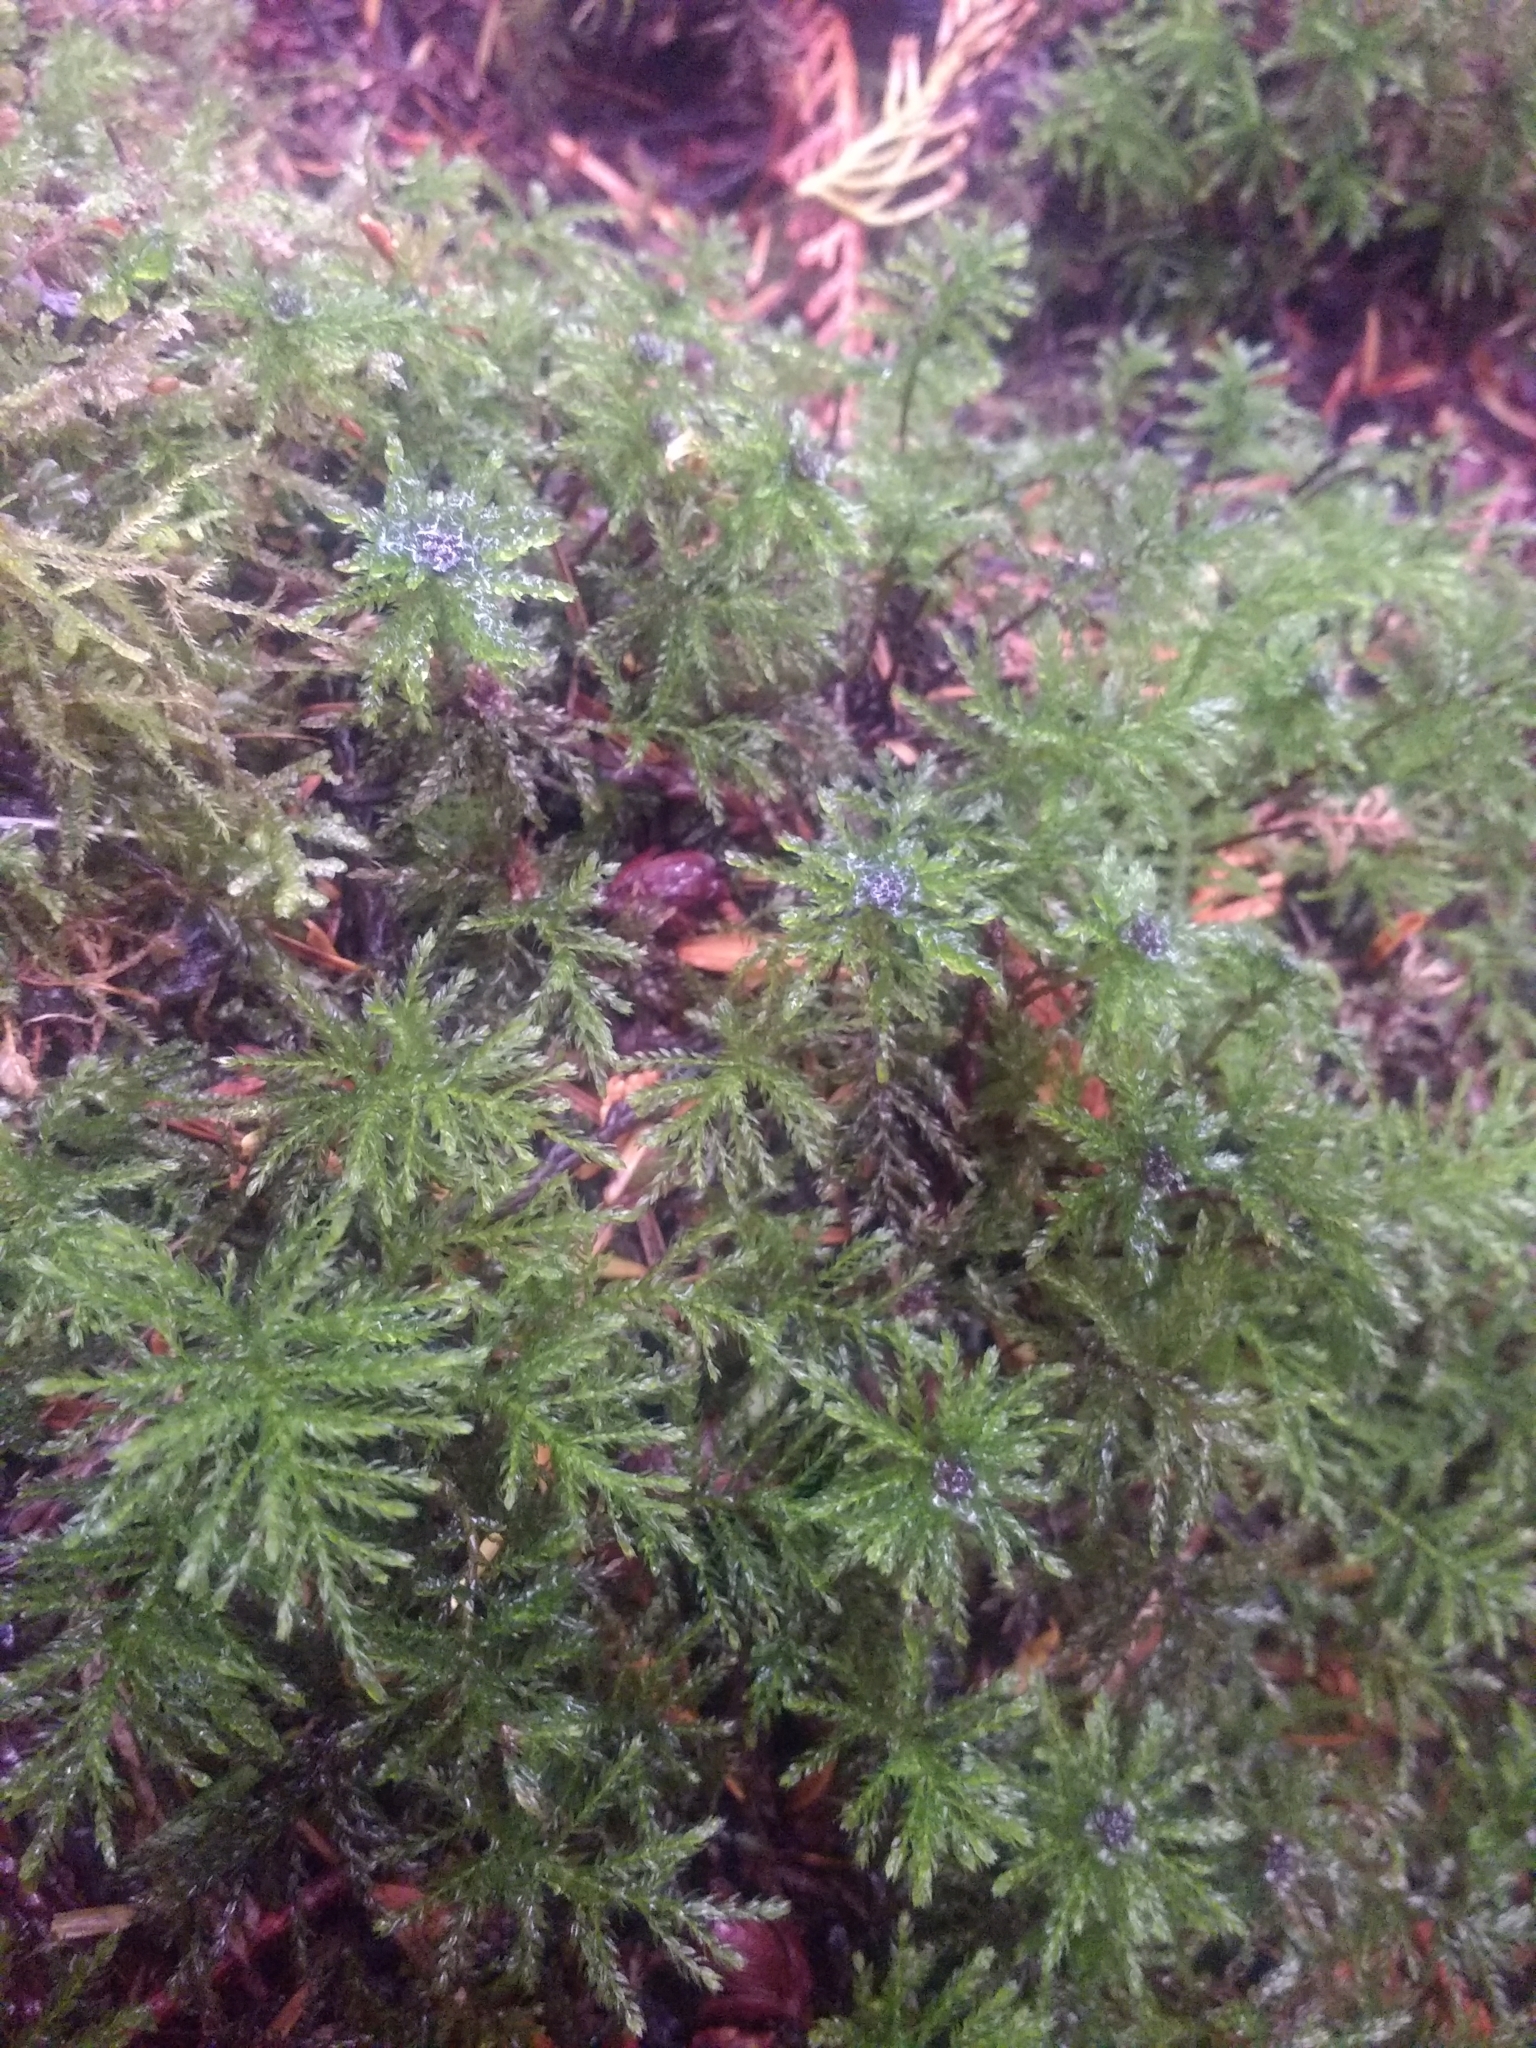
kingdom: Plantae
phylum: Bryophyta
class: Bryopsida
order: Bryales
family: Mniaceae
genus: Leucolepis
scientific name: Leucolepis acanthoneura
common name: Leucolepis umbrella moss
